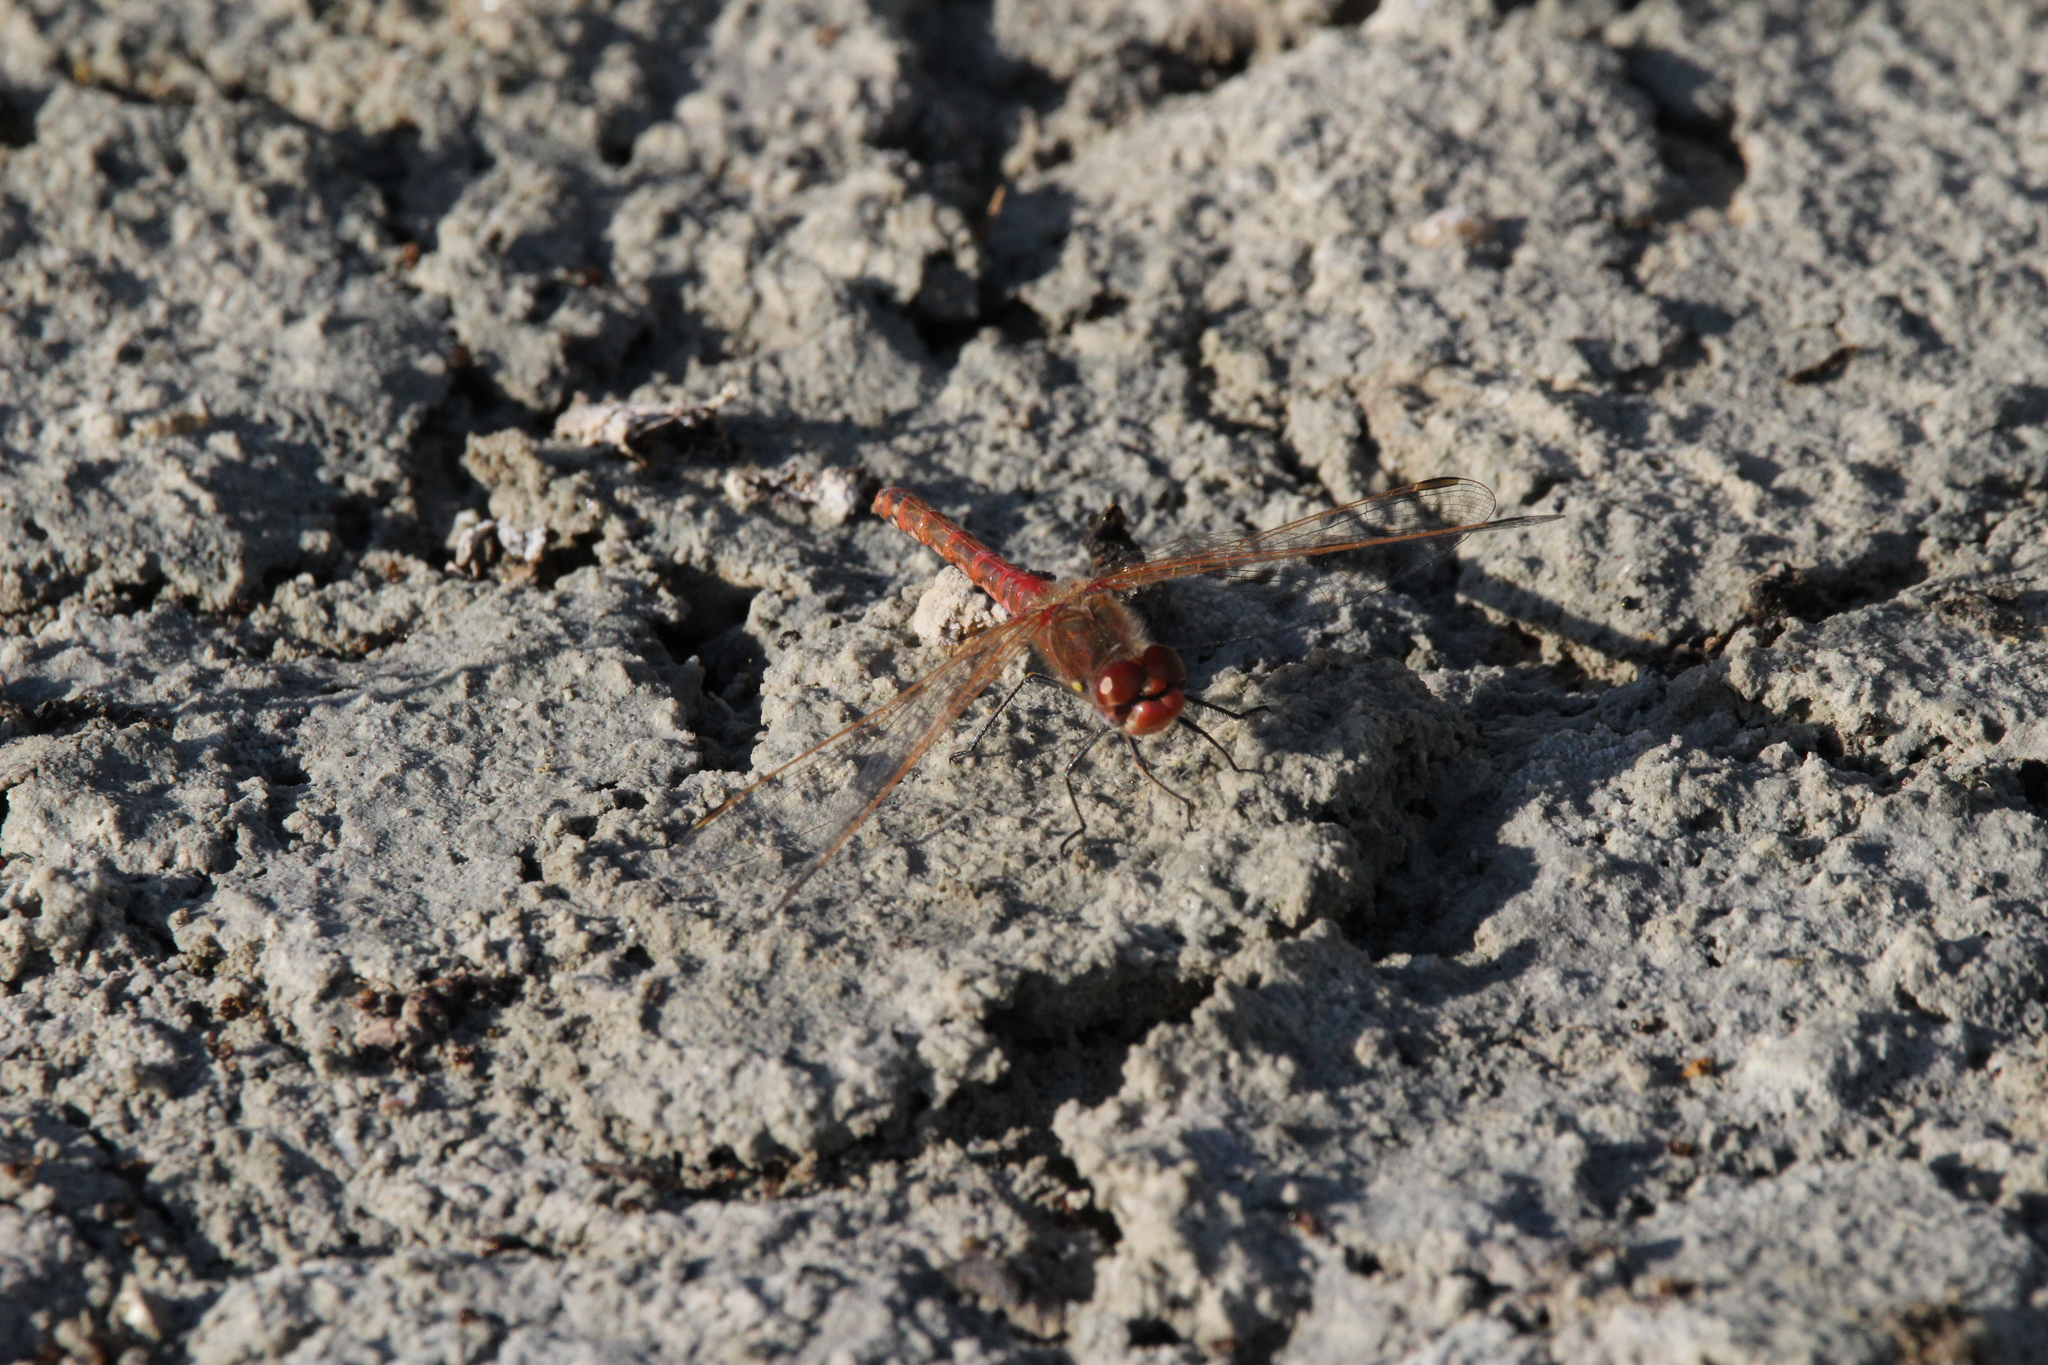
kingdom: Animalia
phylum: Arthropoda
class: Insecta
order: Odonata
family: Libellulidae
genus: Sympetrum
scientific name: Sympetrum corruptum
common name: Variegated meadowhawk
